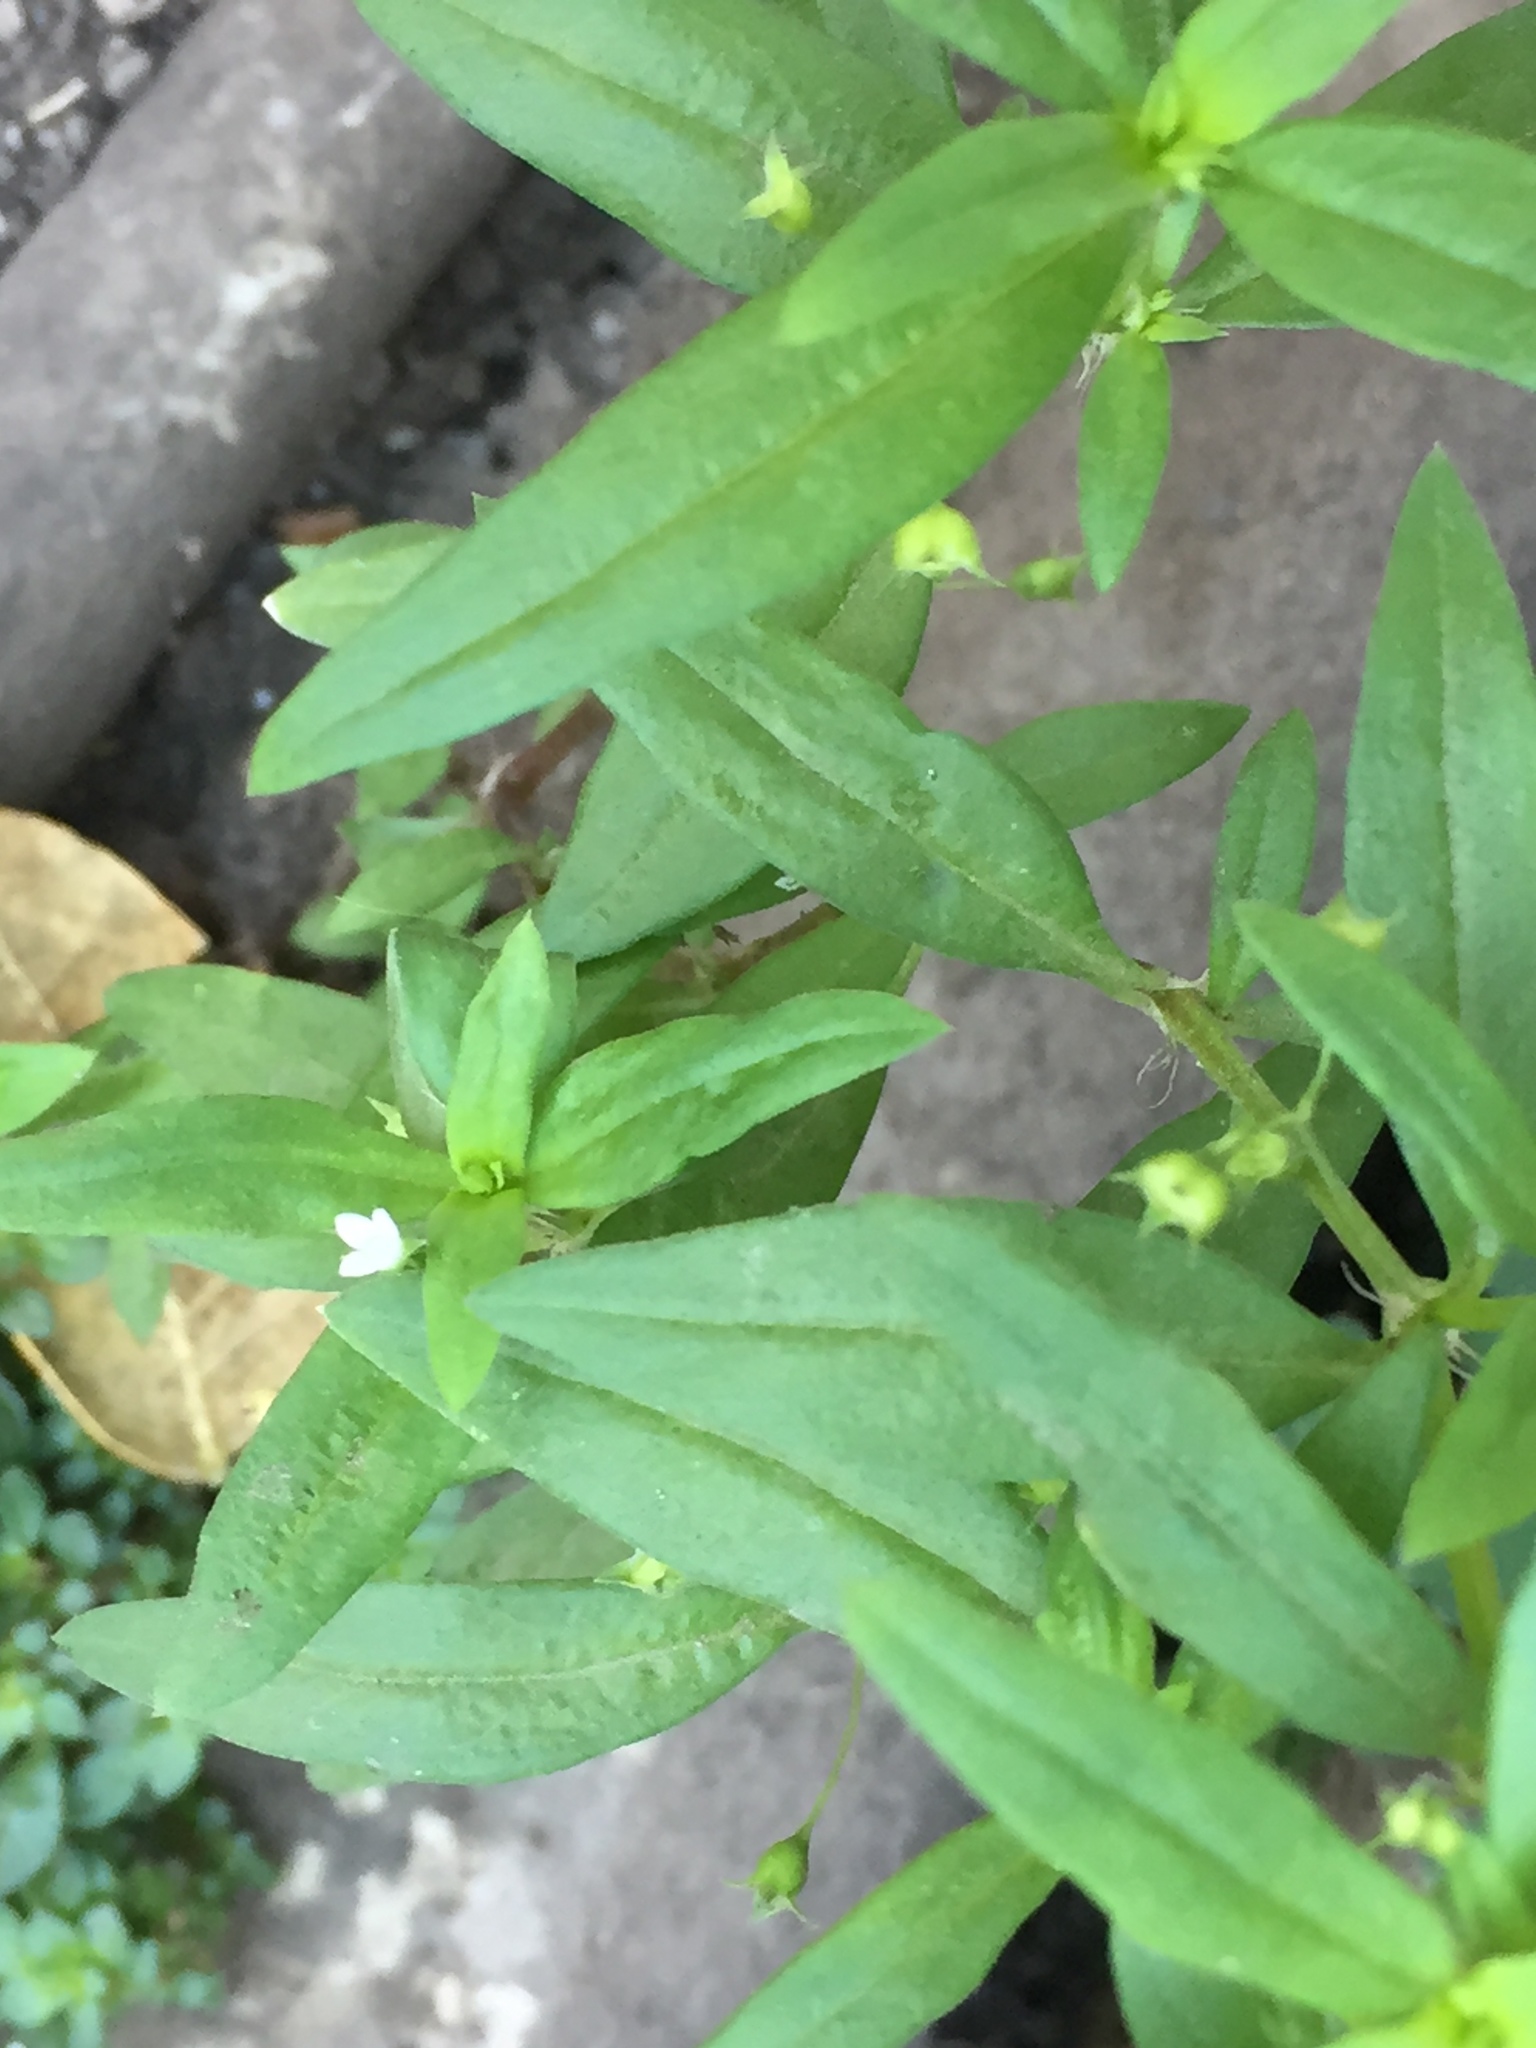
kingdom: Plantae
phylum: Tracheophyta
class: Magnoliopsida
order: Gentianales
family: Rubiaceae
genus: Oldenlandia
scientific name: Oldenlandia corymbosa
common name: Flat-top mille graines
